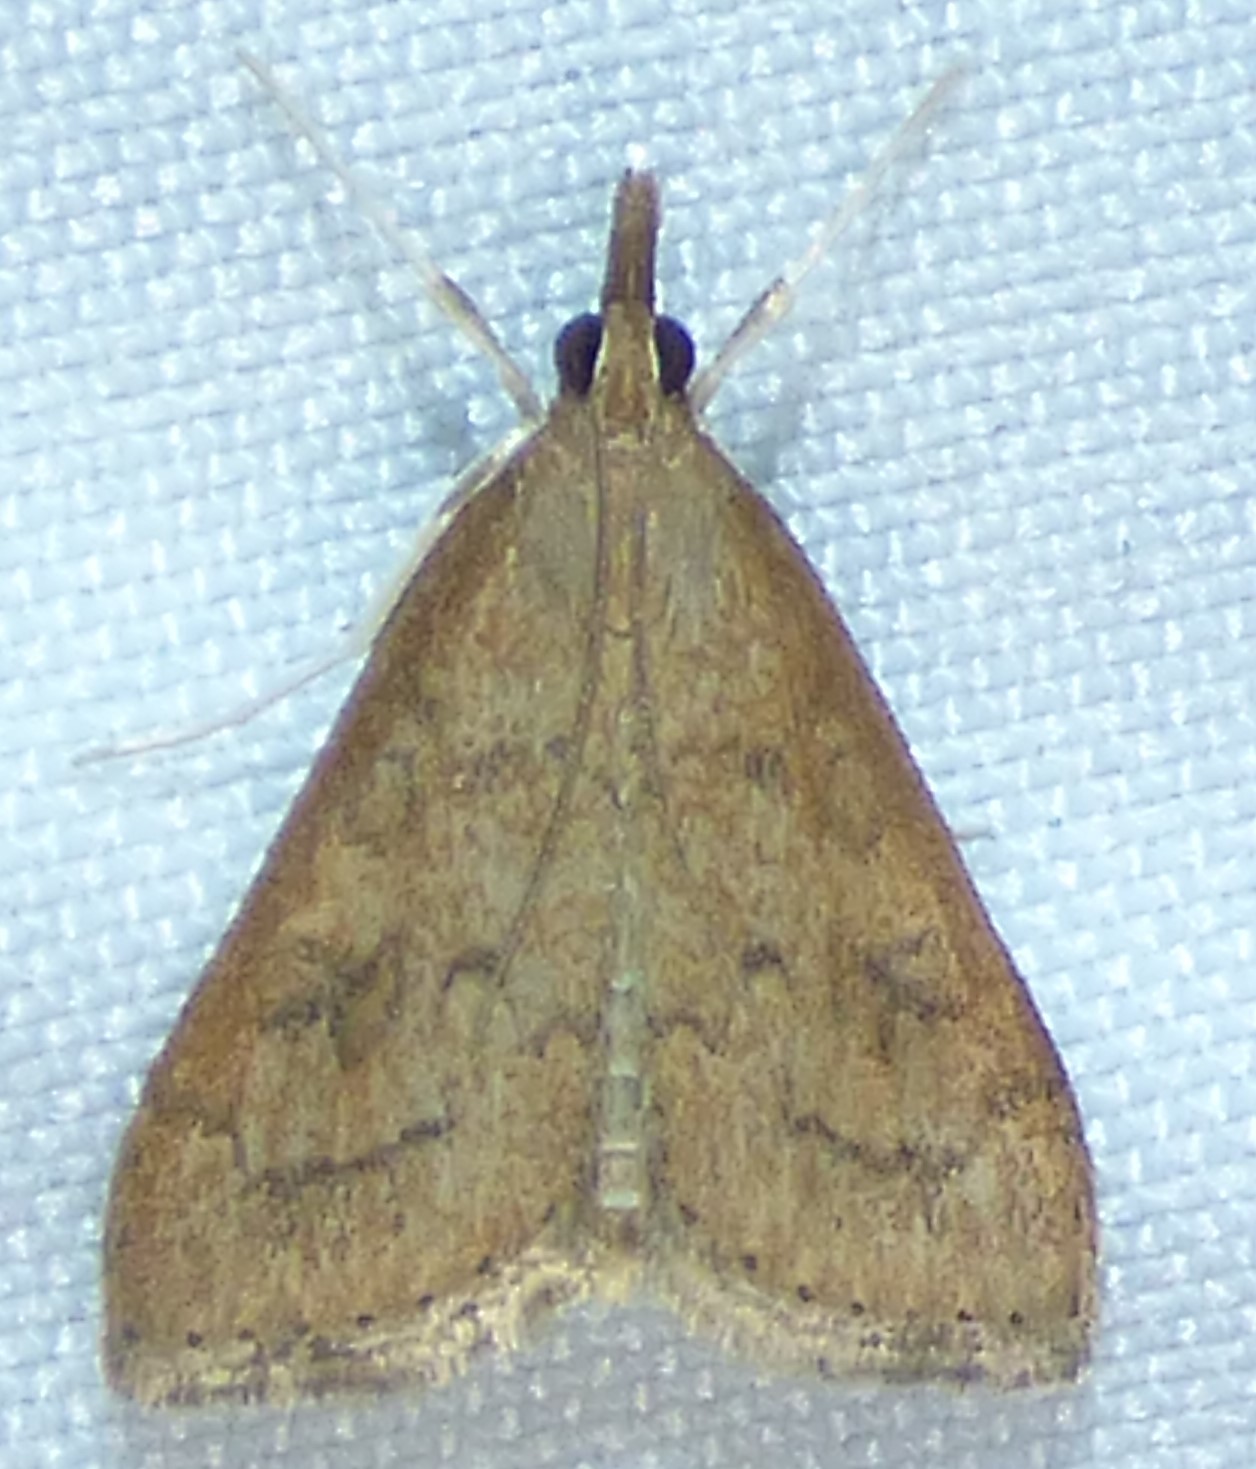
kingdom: Animalia
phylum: Arthropoda
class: Insecta
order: Lepidoptera
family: Crambidae
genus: Udea
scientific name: Udea rubigalis
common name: Celery leaftier moth
